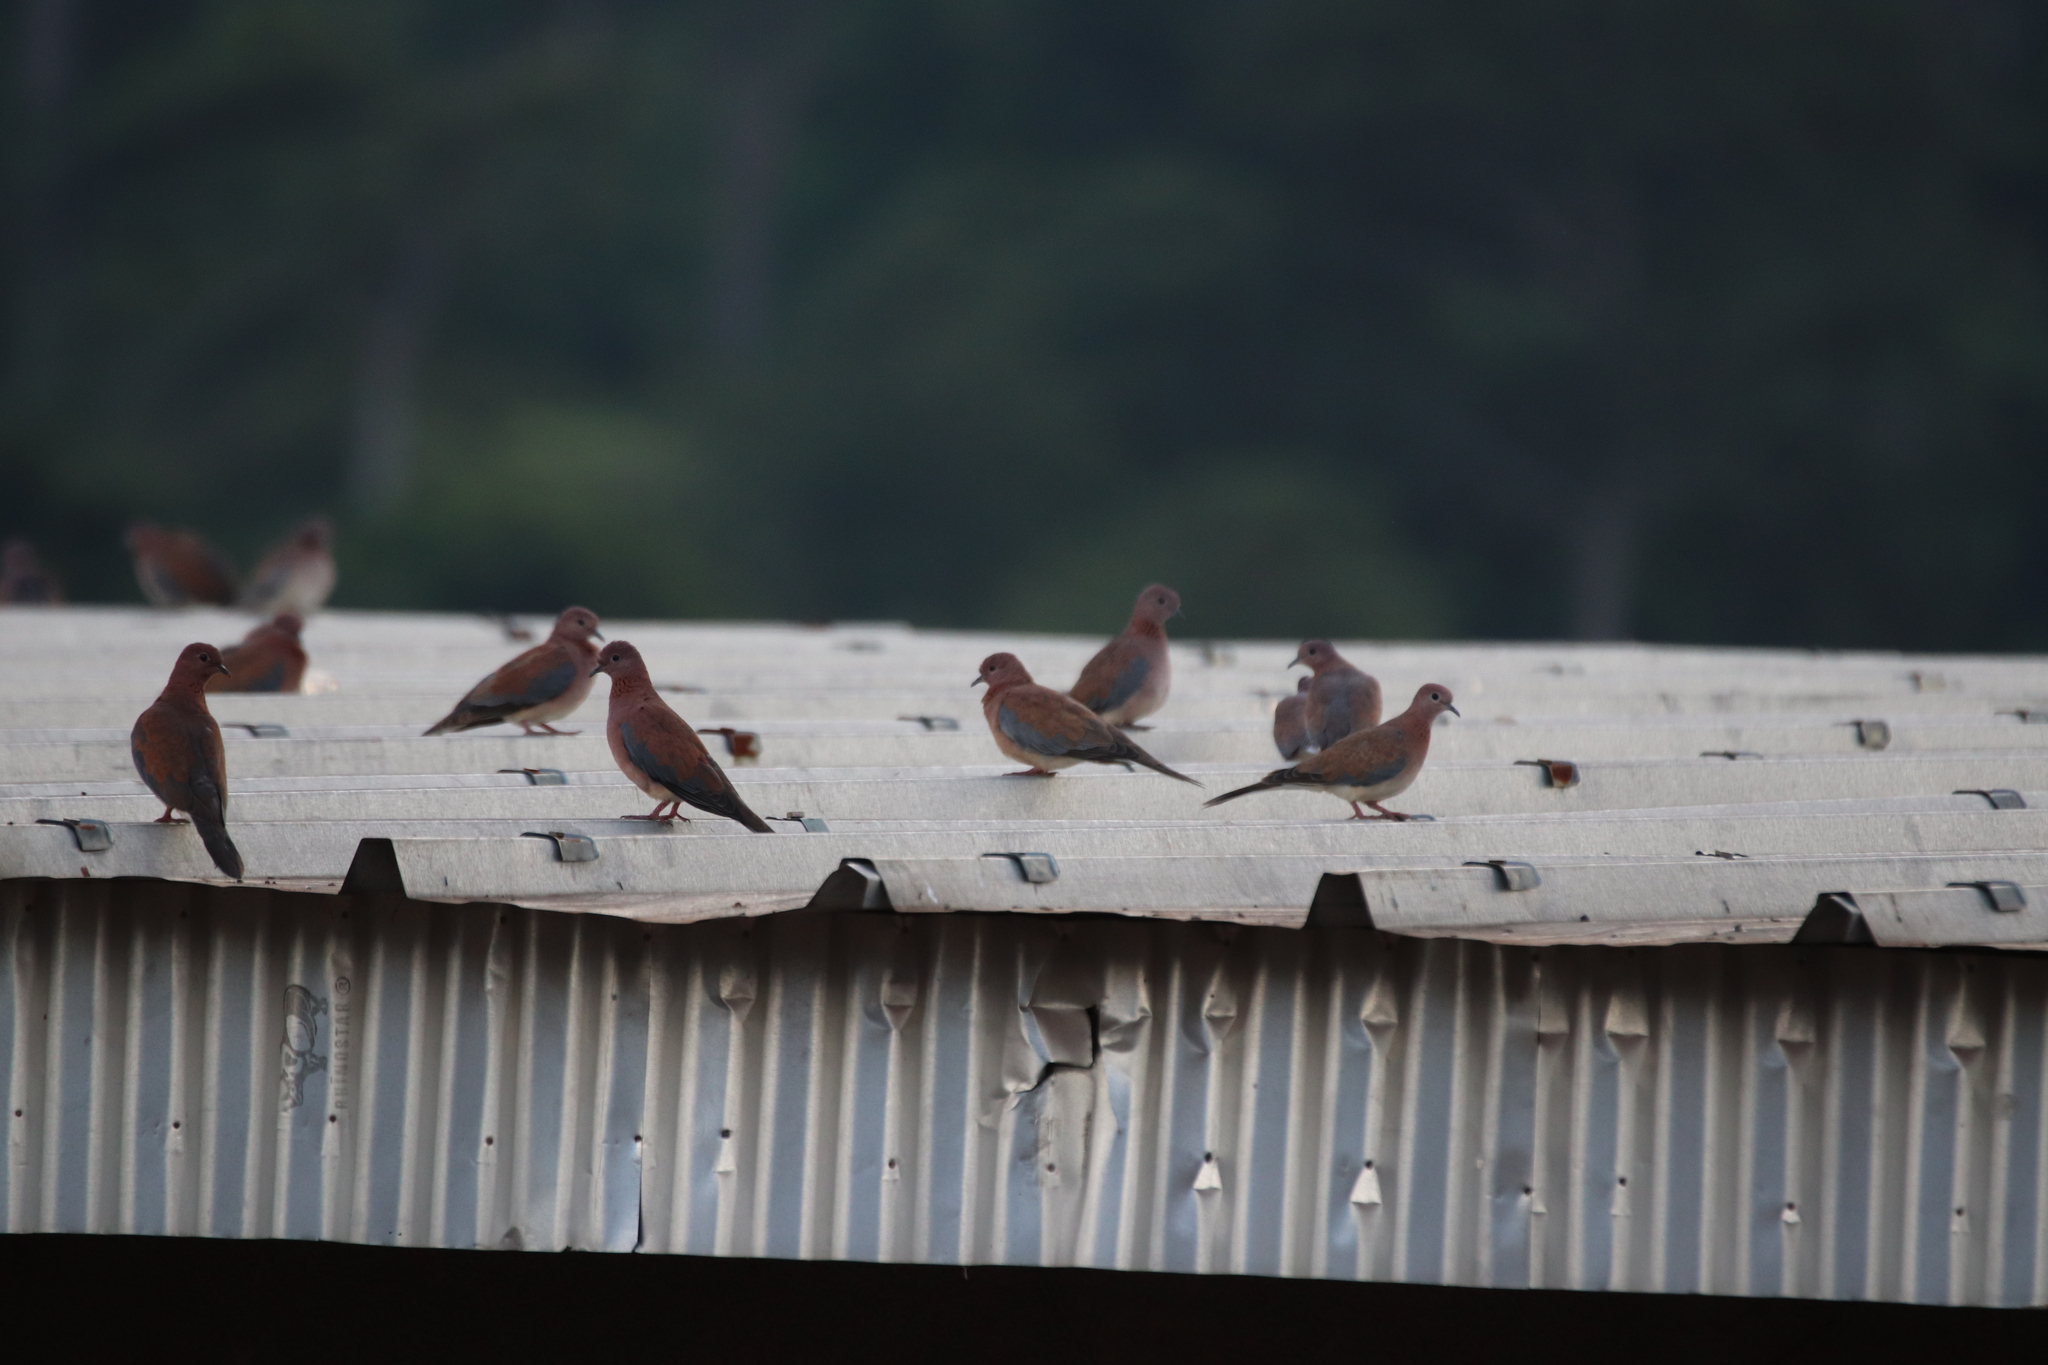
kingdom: Animalia
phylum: Chordata
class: Aves
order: Columbiformes
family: Columbidae
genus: Spilopelia
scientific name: Spilopelia senegalensis
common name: Laughing dove
